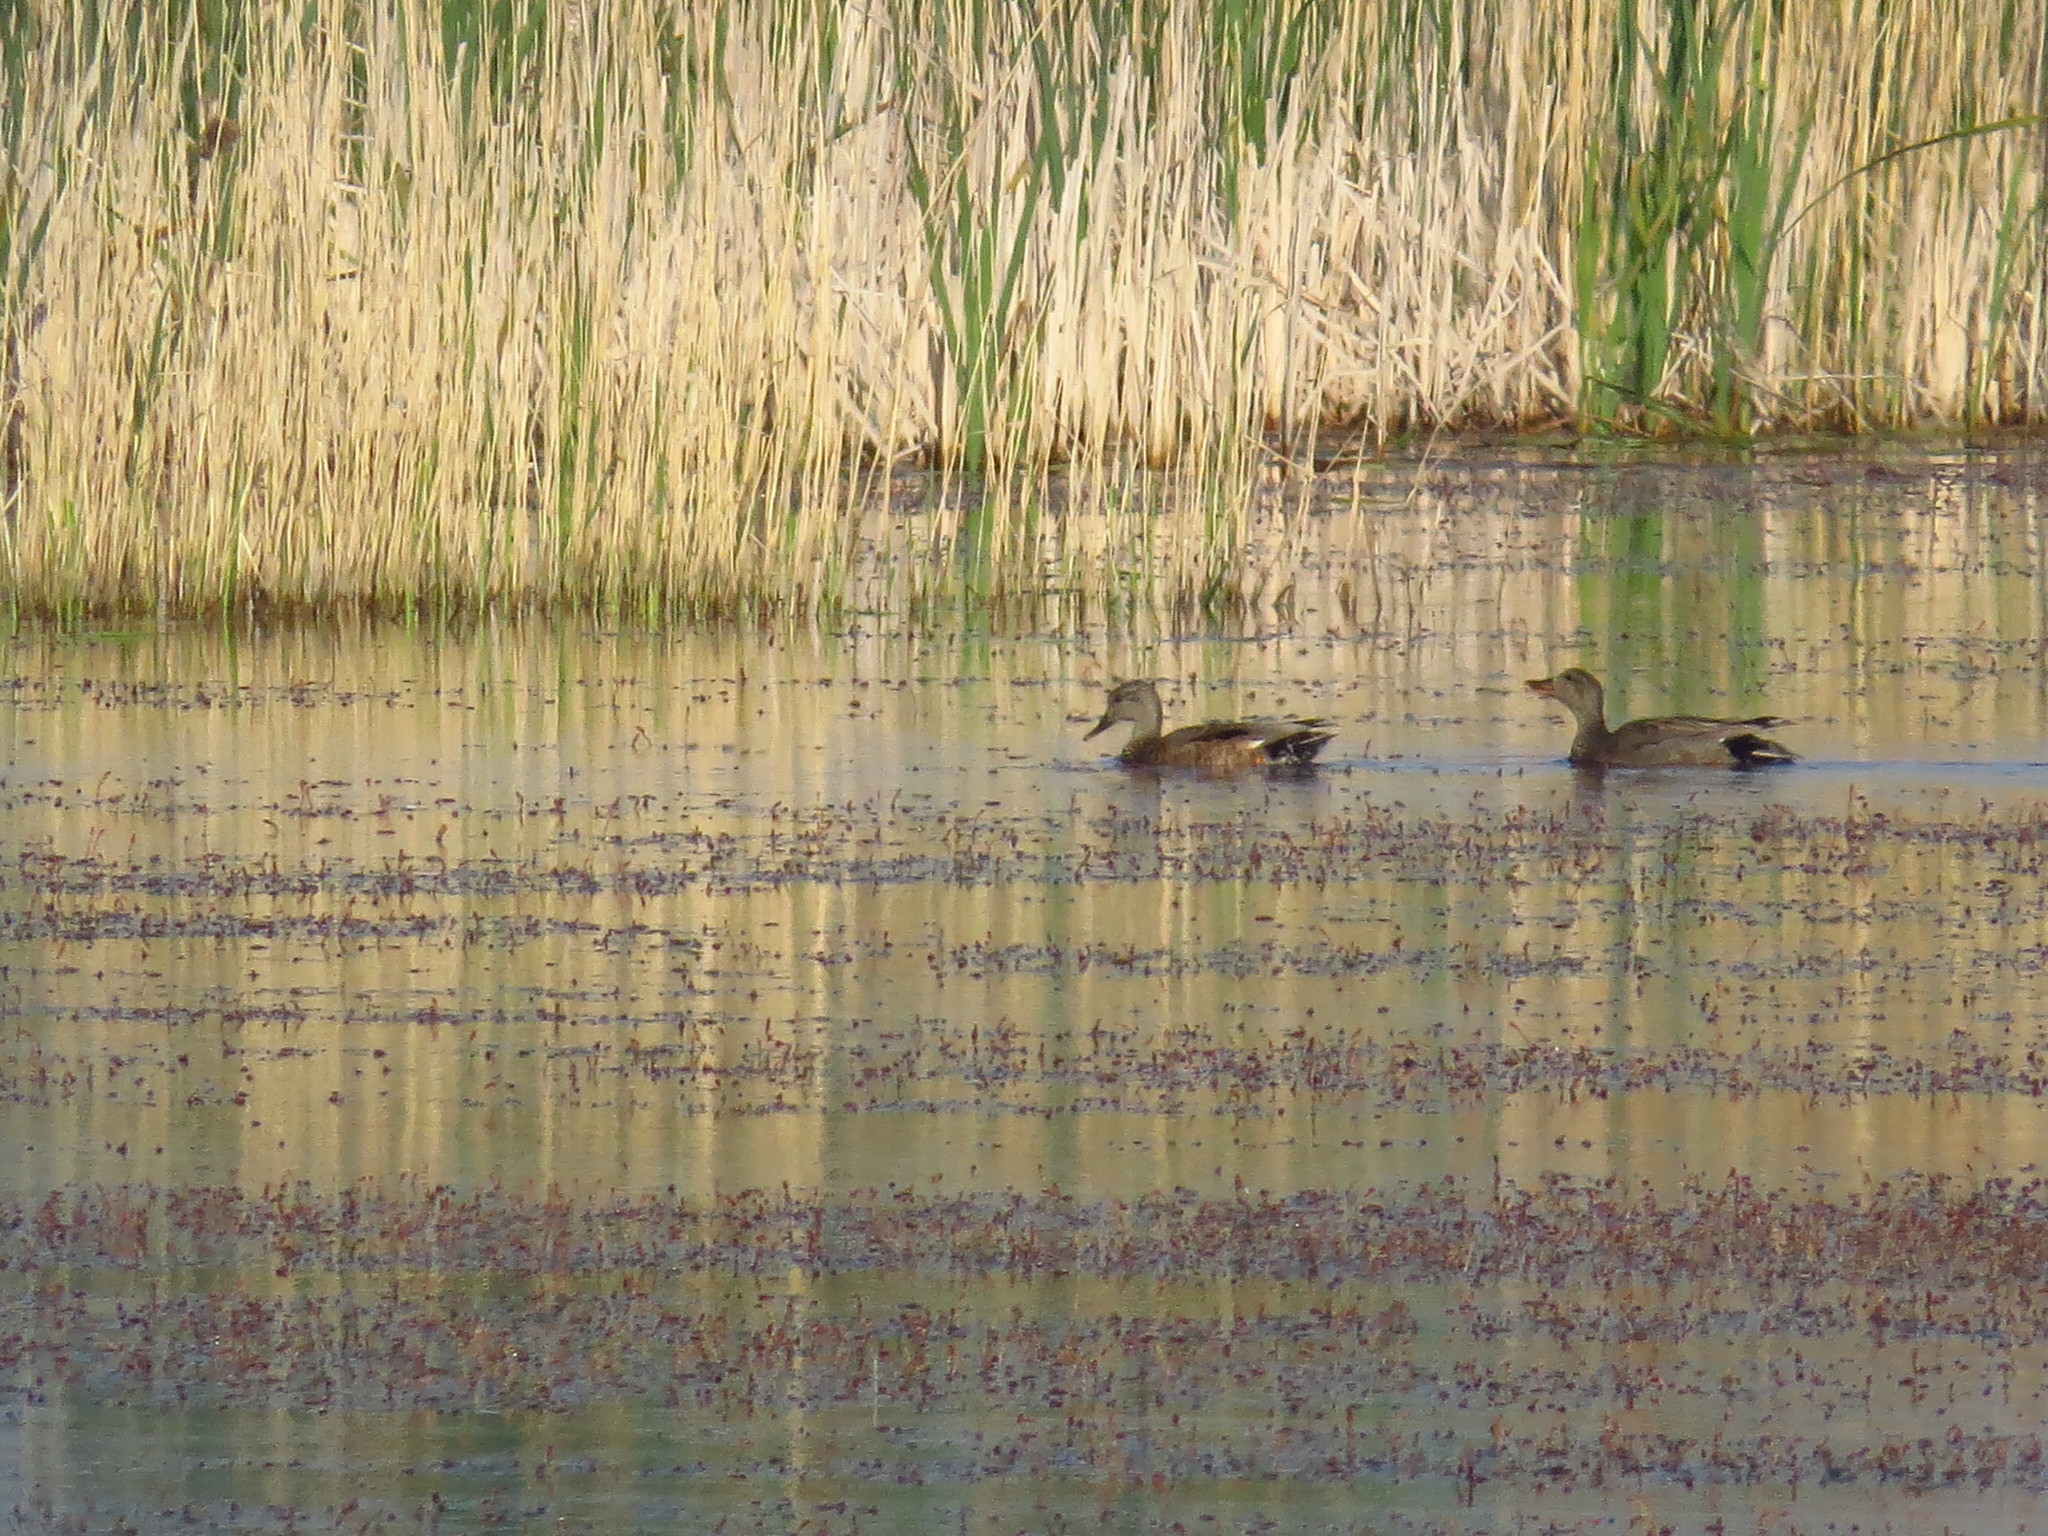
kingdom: Animalia
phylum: Chordata
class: Aves
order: Anseriformes
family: Anatidae
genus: Mareca
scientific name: Mareca strepera
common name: Gadwall
